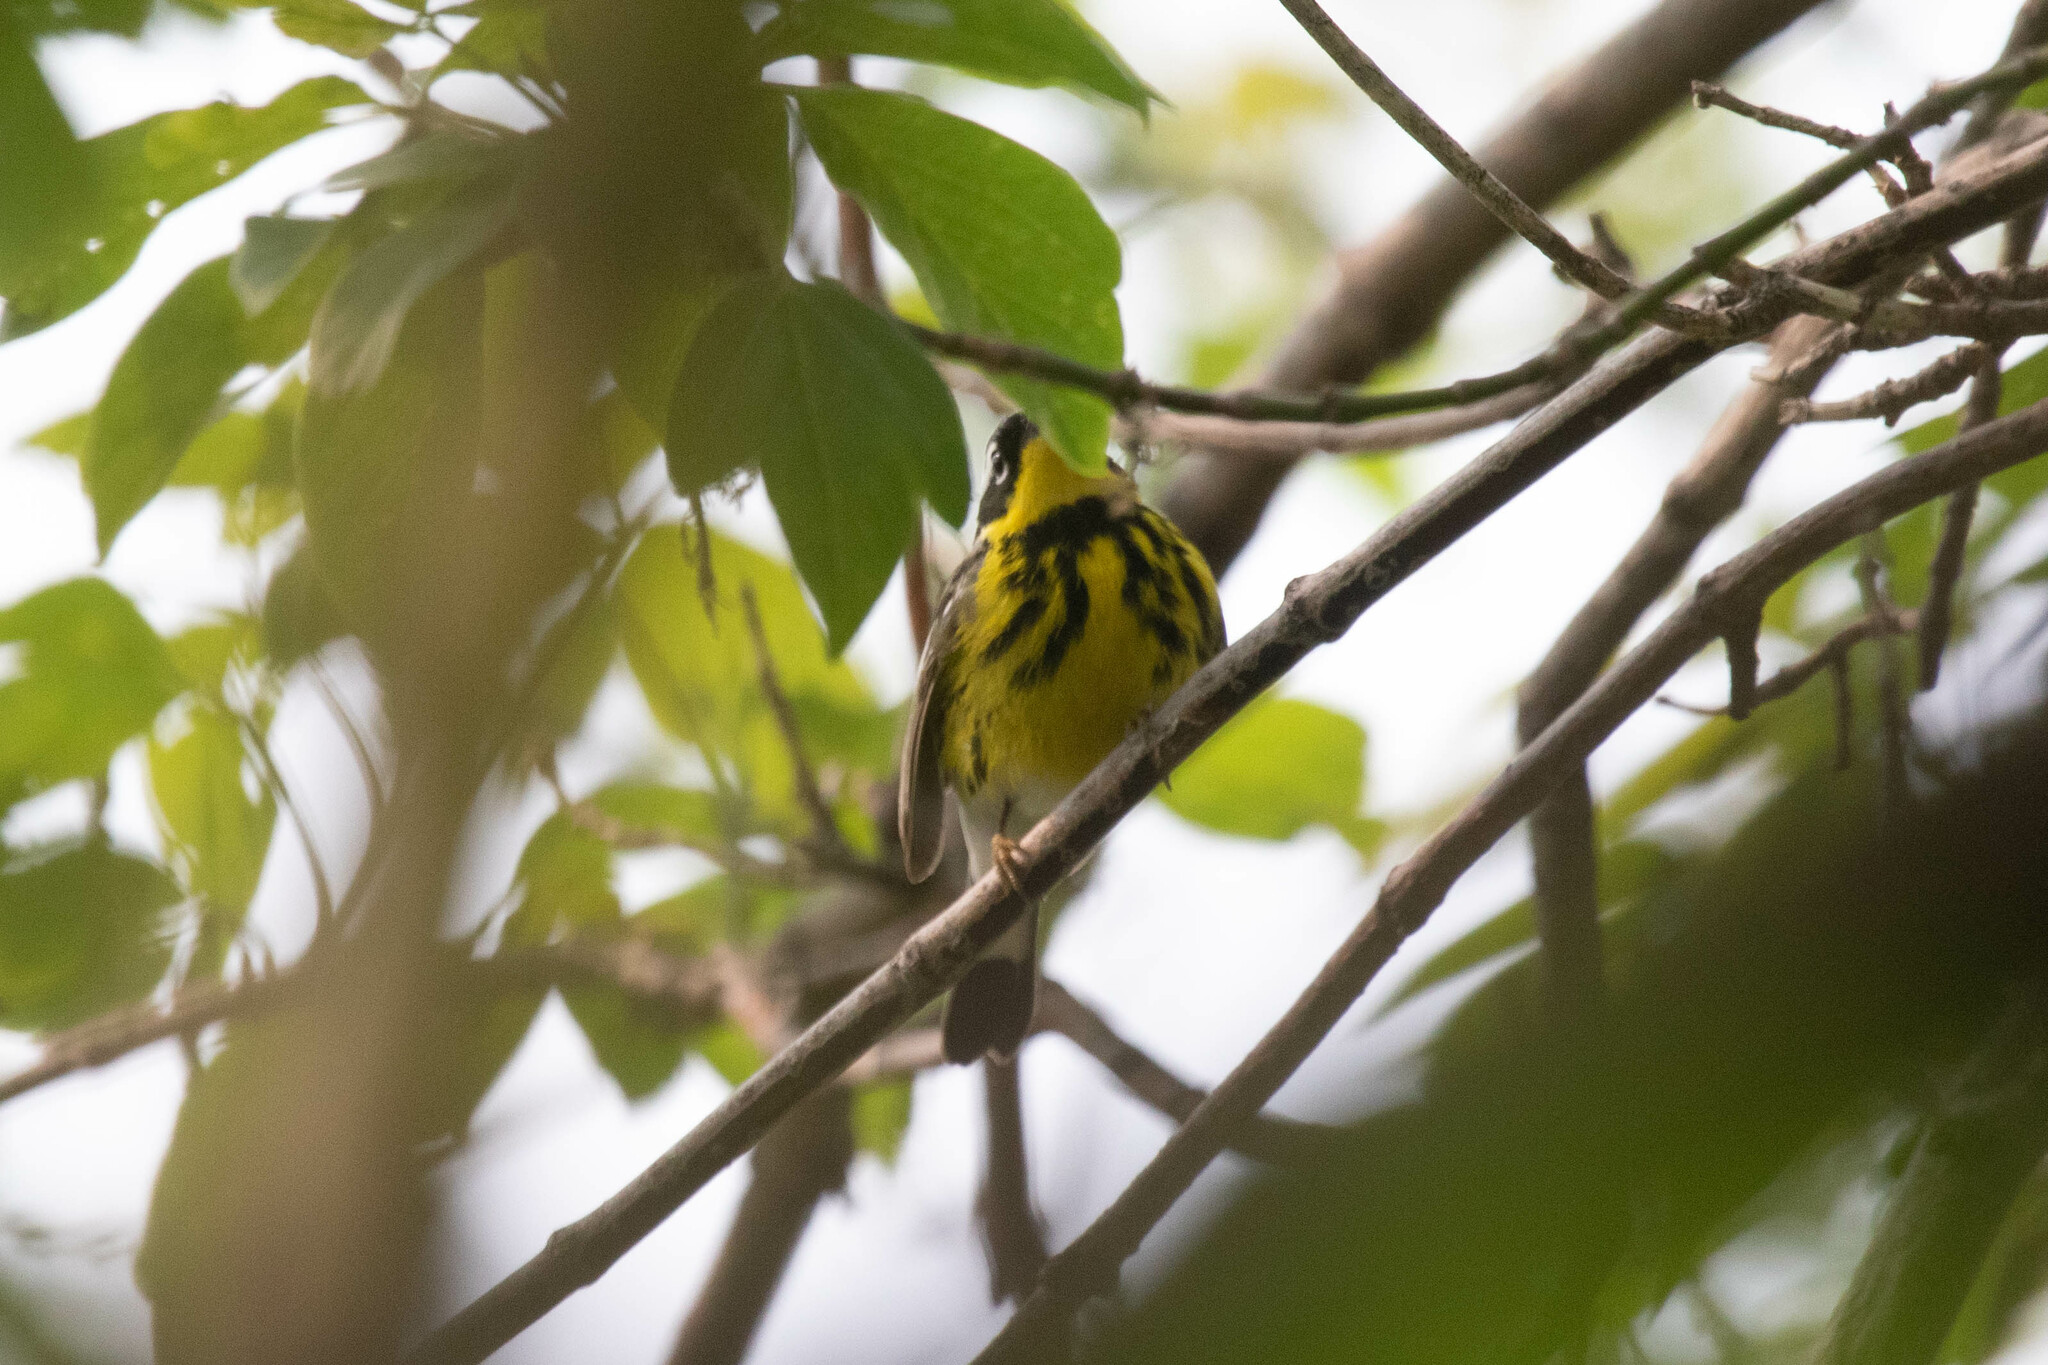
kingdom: Animalia
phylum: Chordata
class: Aves
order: Passeriformes
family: Parulidae
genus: Setophaga
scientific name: Setophaga magnolia
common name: Magnolia warbler
